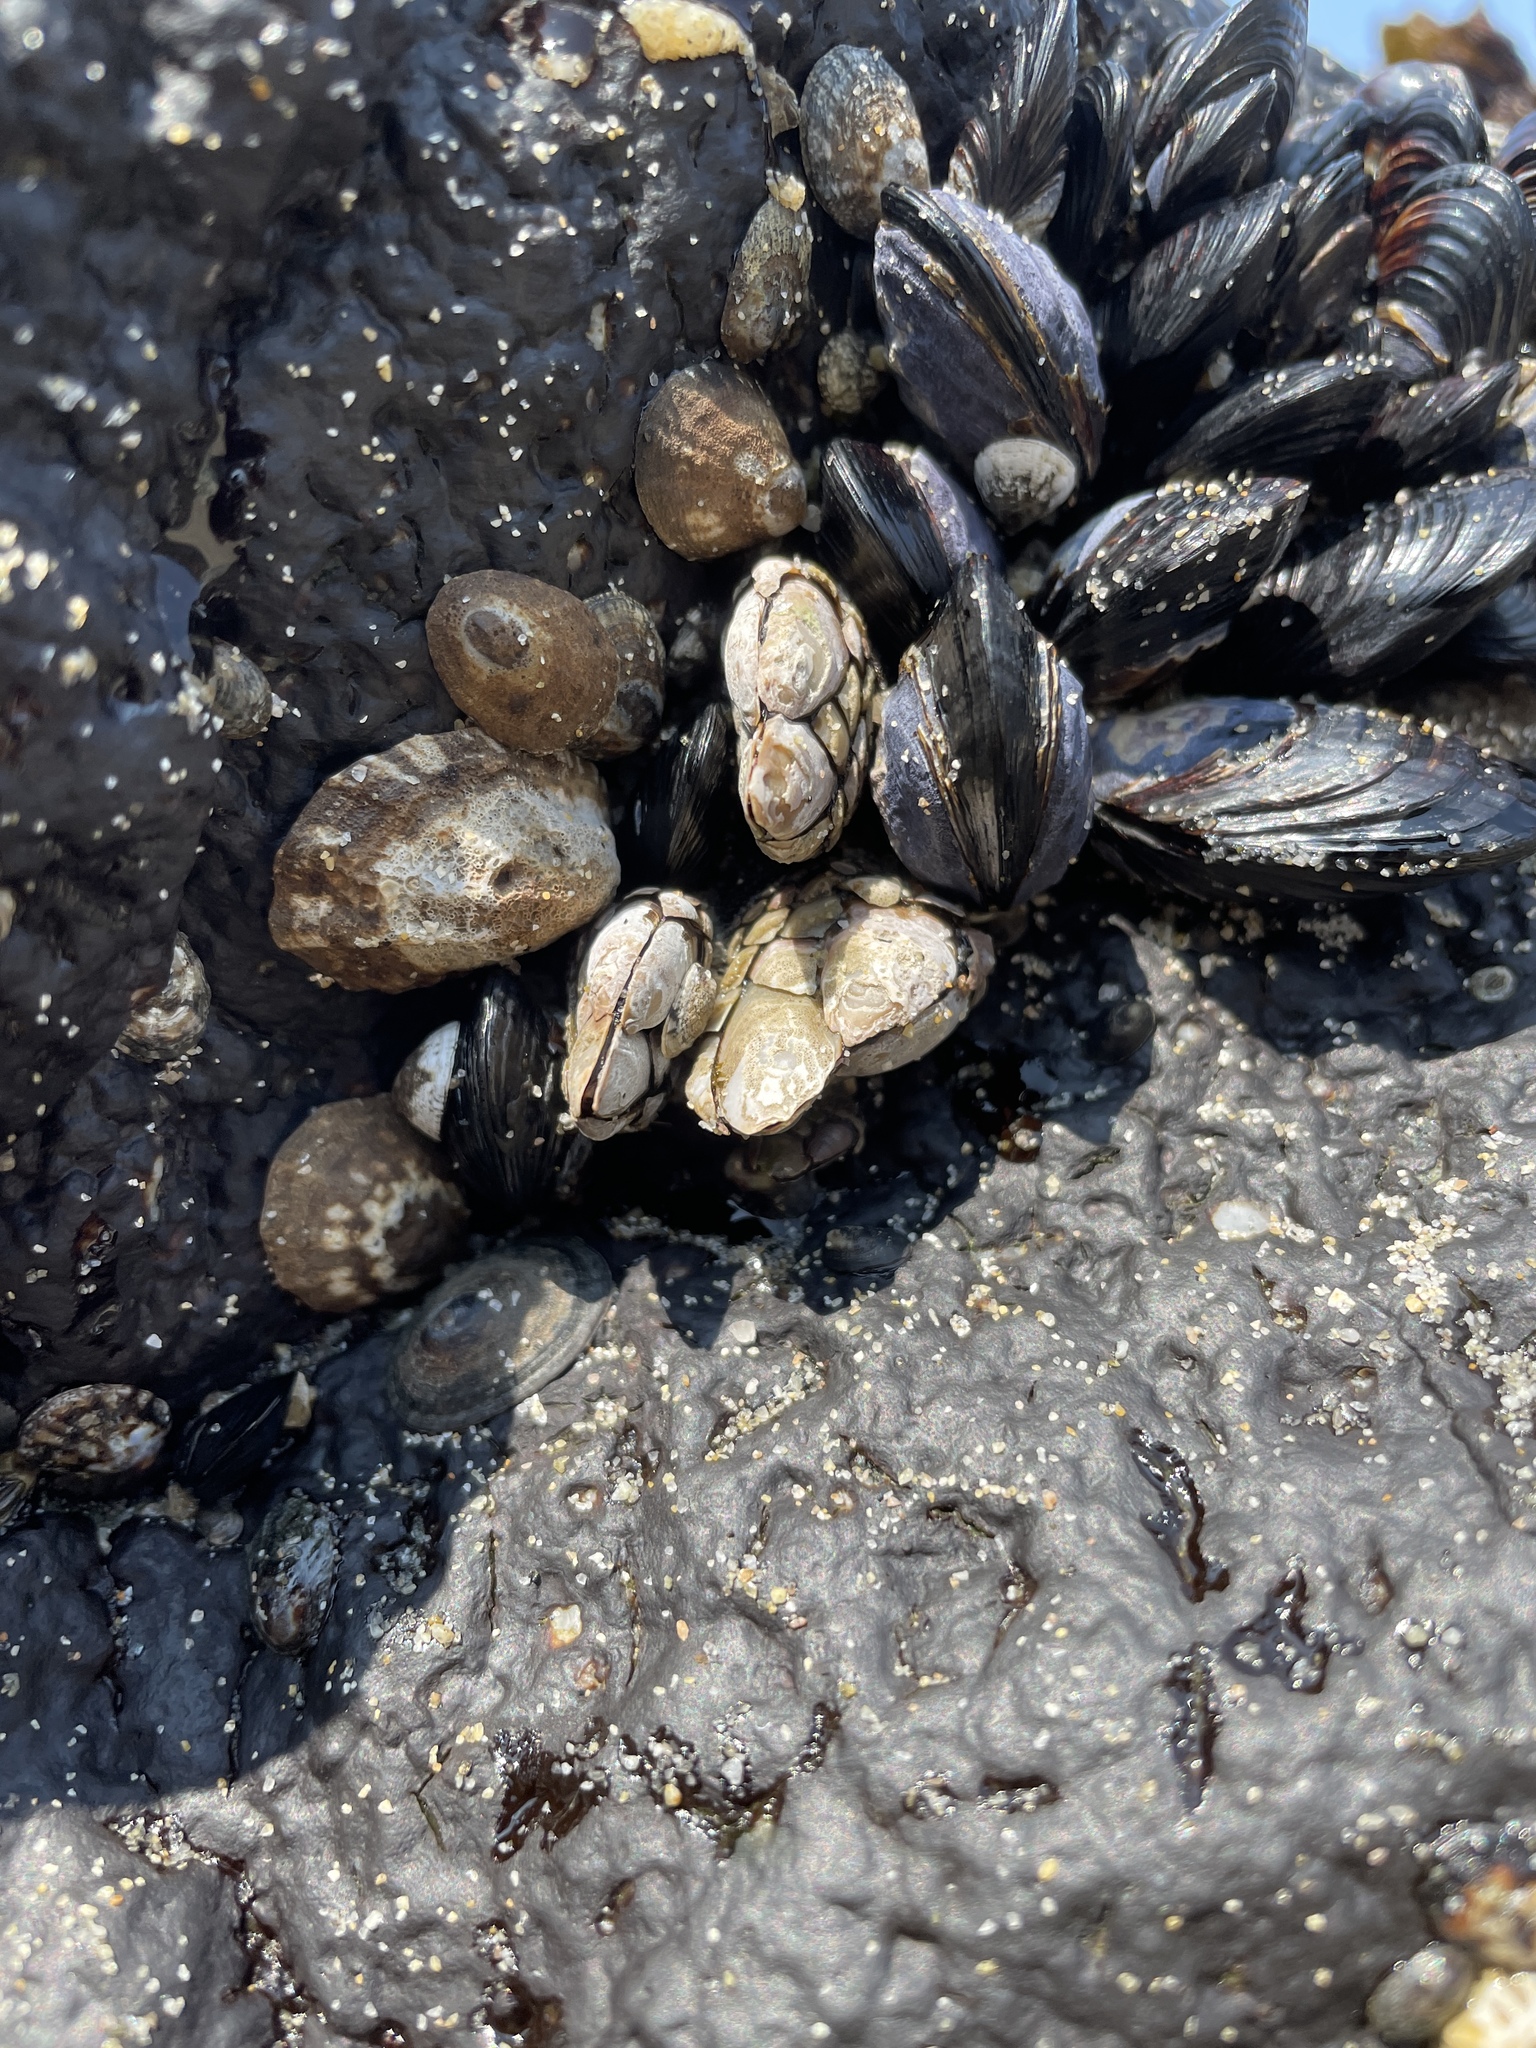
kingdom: Animalia
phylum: Arthropoda
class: Maxillopoda
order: Pedunculata
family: Pollicipedidae
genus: Pollicipes
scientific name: Pollicipes polymerus
